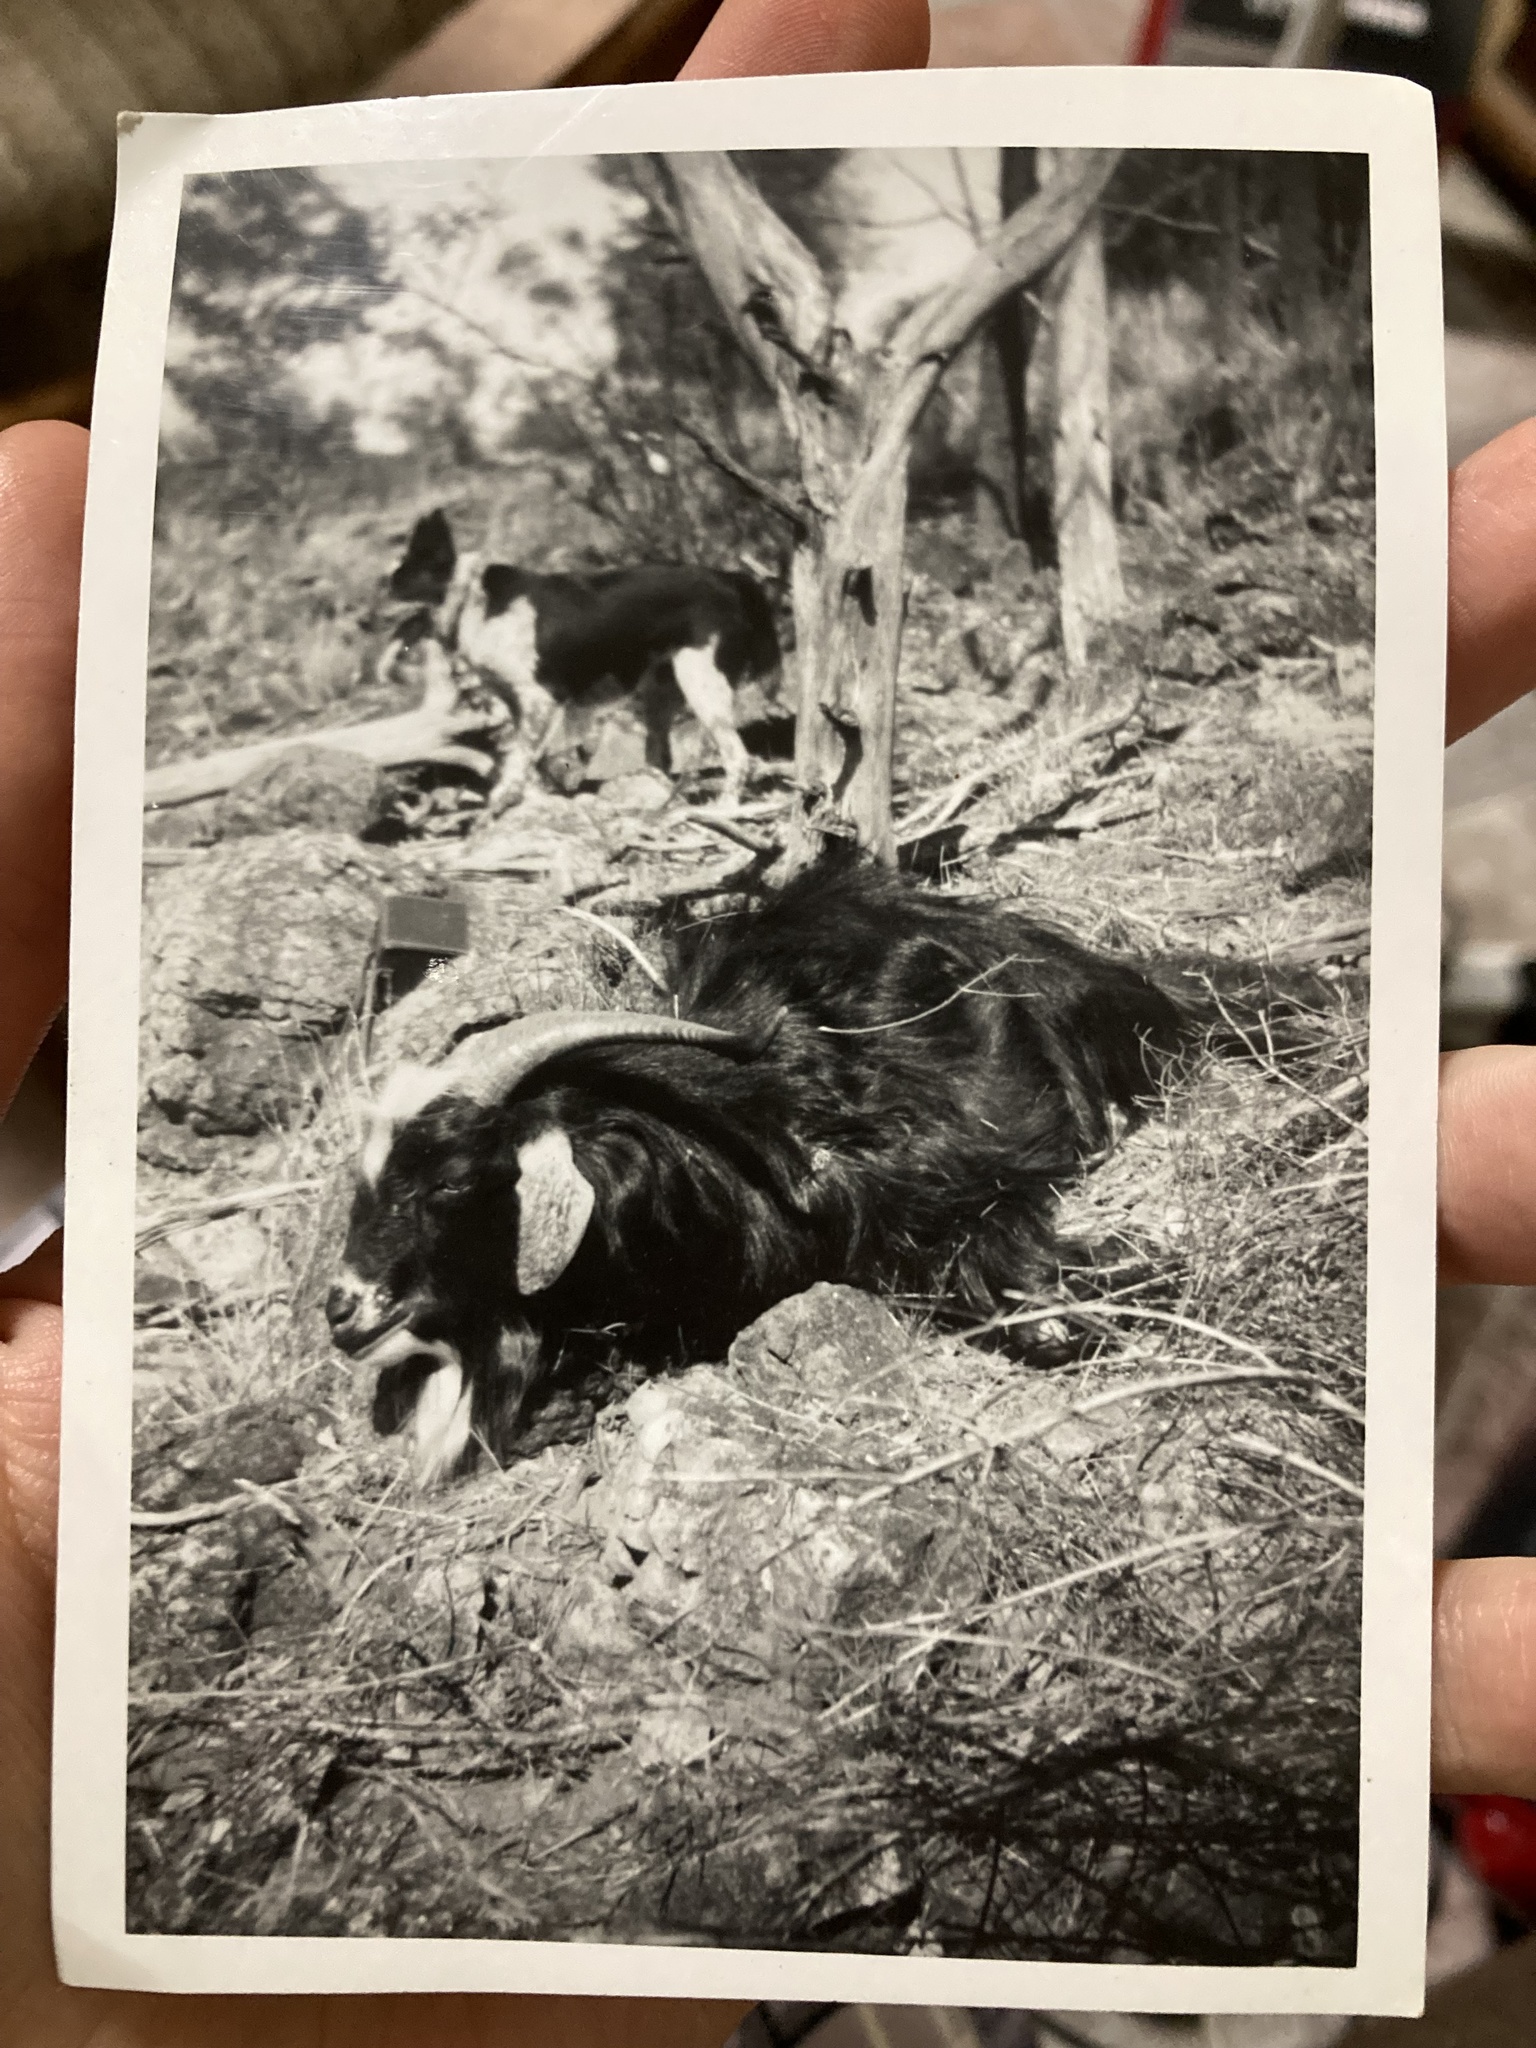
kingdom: Animalia
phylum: Chordata
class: Mammalia
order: Artiodactyla
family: Bovidae
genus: Capra
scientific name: Capra hircus
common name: Domestic goat
